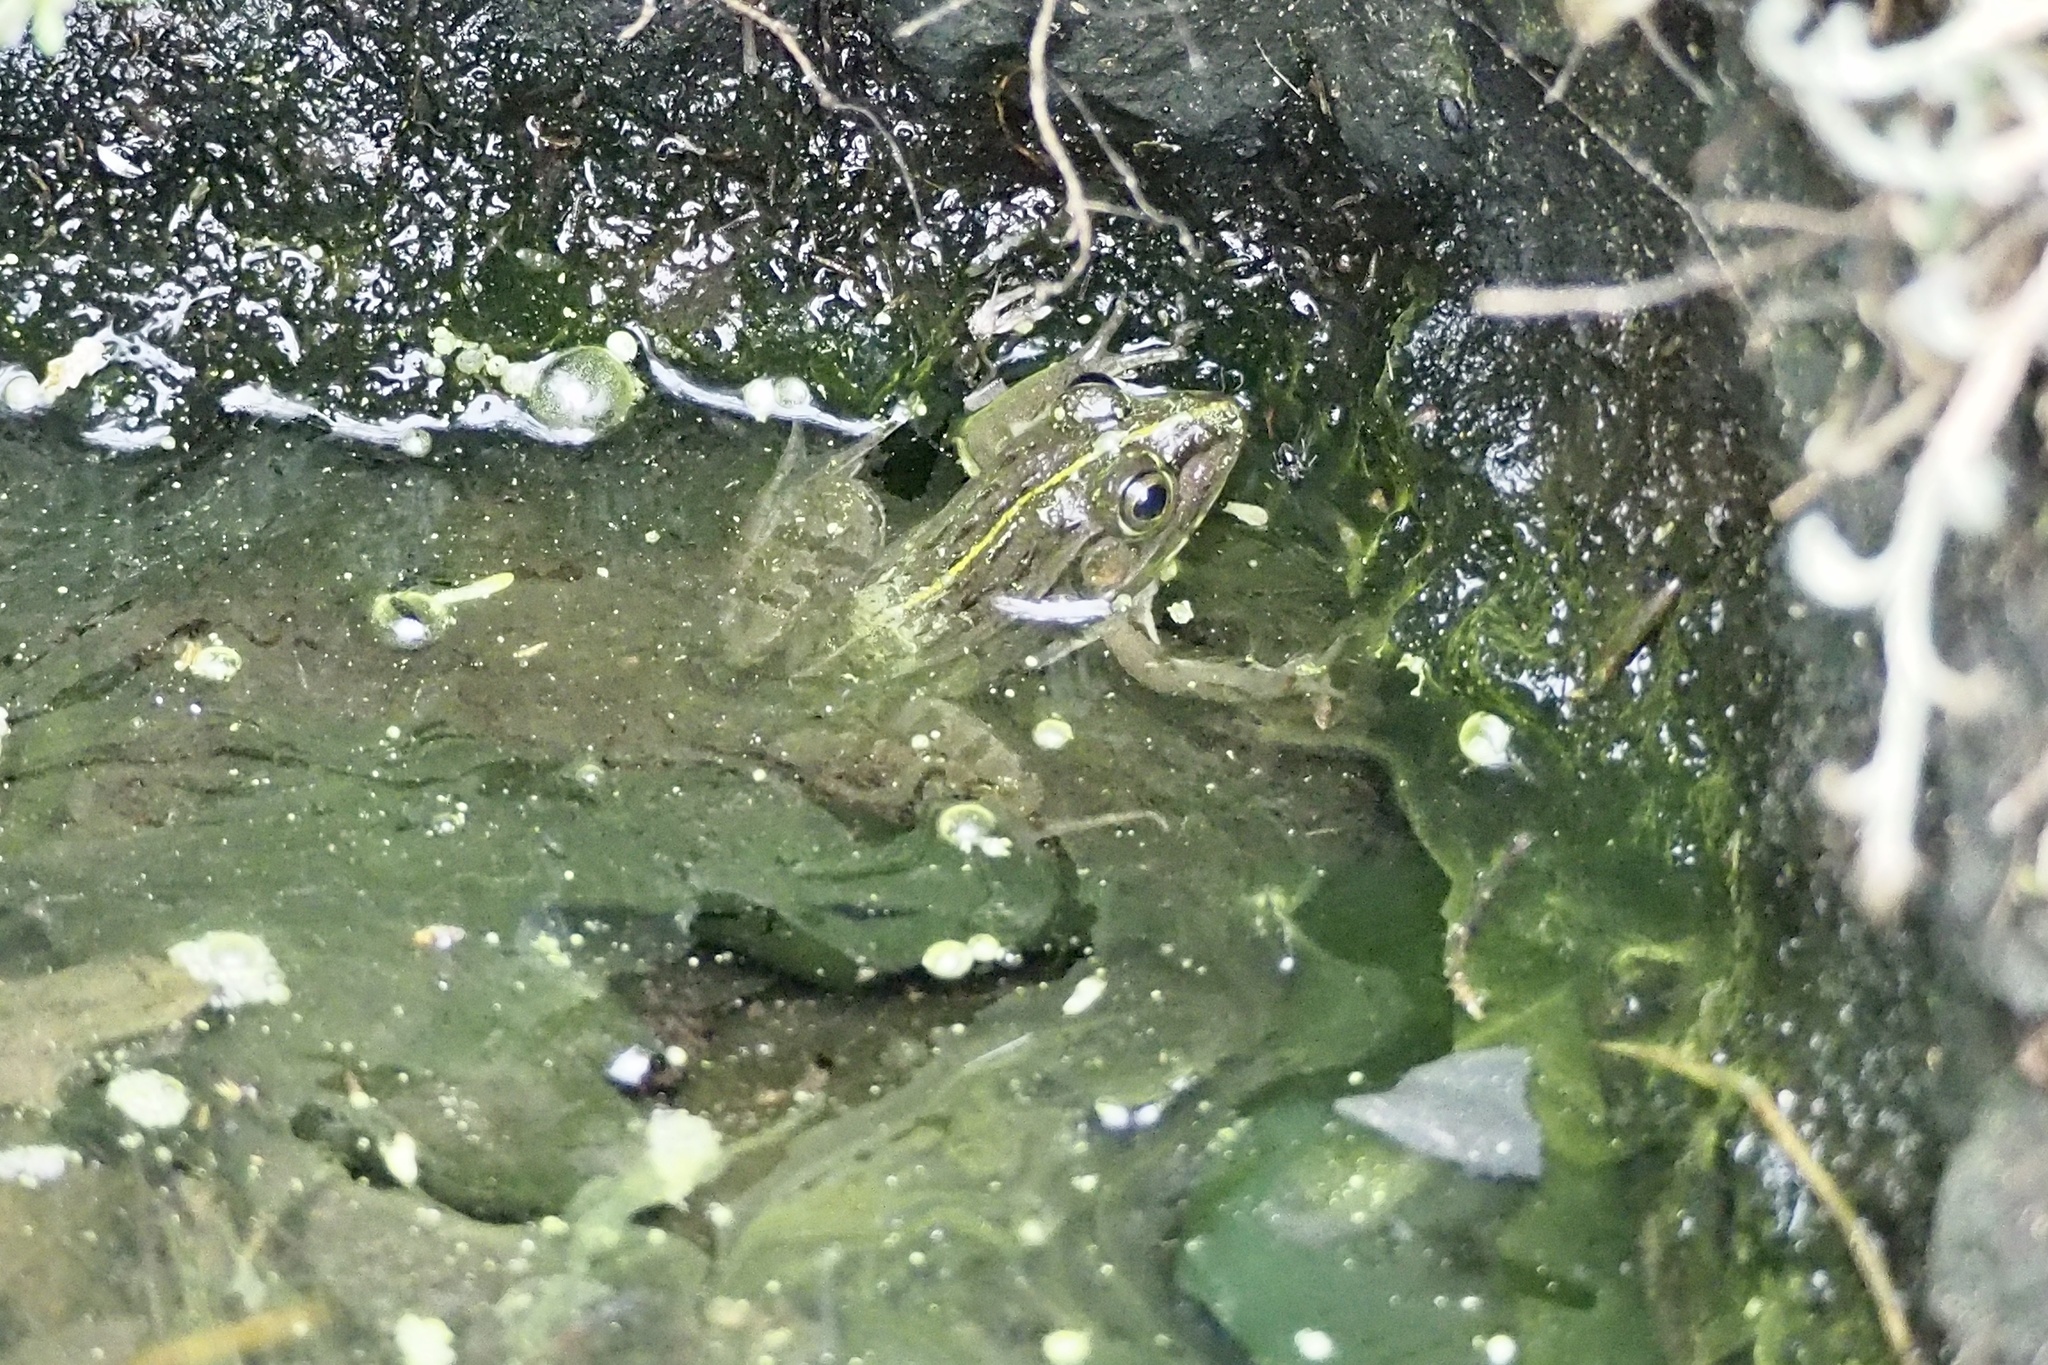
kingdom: Animalia
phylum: Chordata
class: Amphibia
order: Anura
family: Ranidae
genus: Pelophylax
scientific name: Pelophylax nigromaculatus
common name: Black-spotted pond frog
